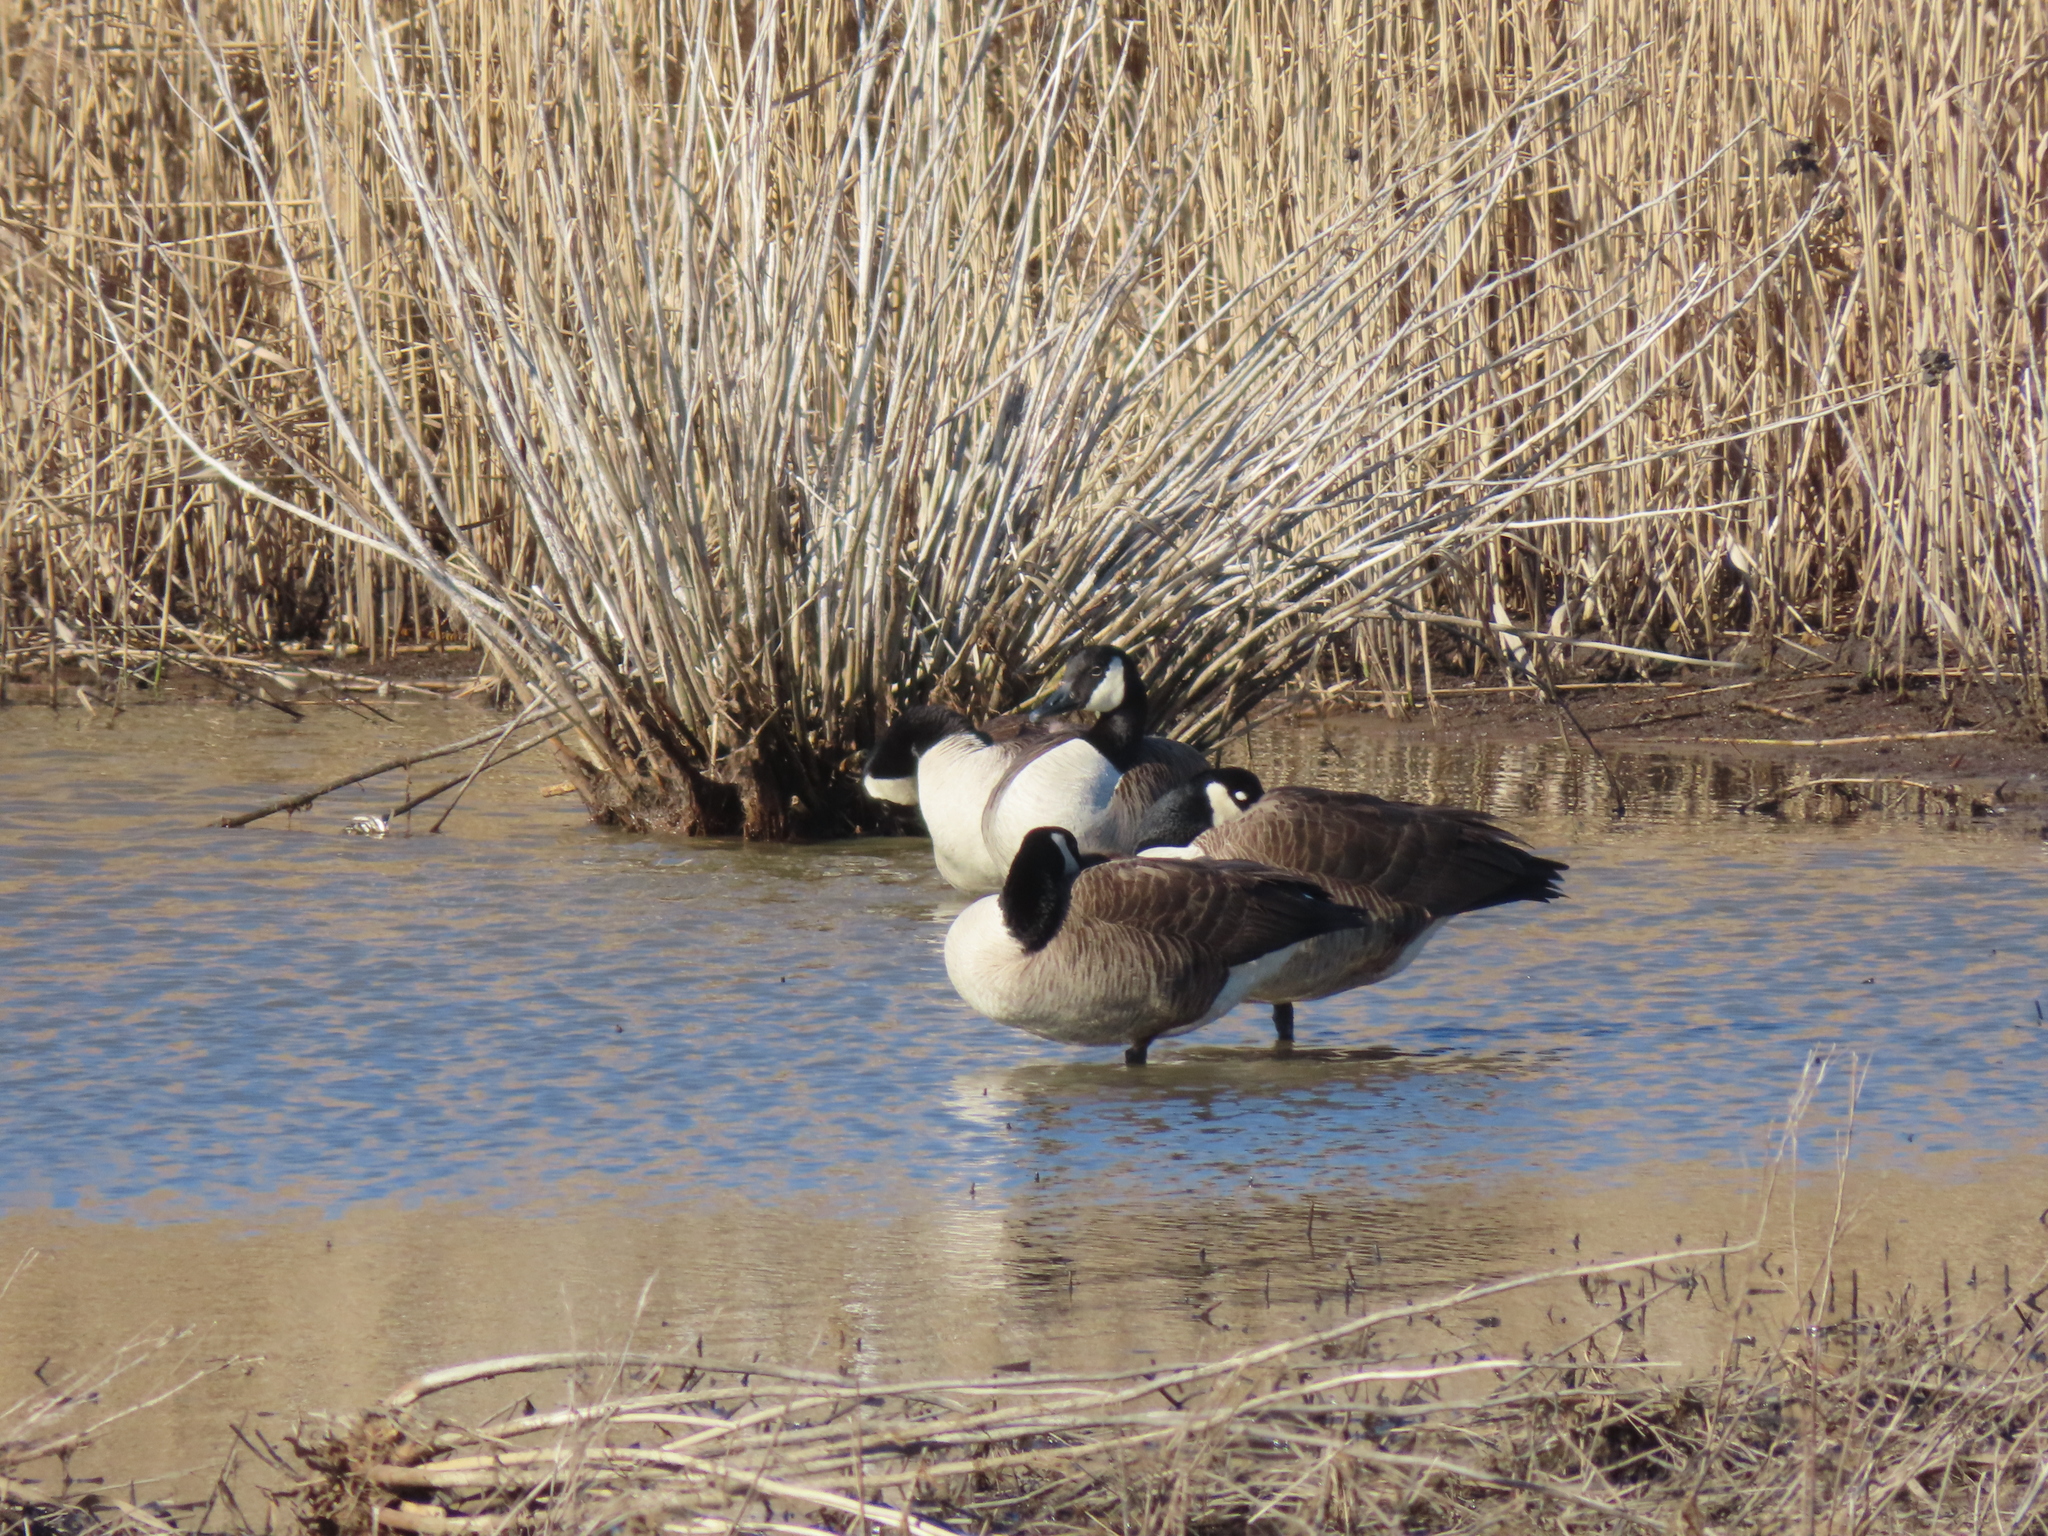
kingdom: Animalia
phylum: Chordata
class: Aves
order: Anseriformes
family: Anatidae
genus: Branta
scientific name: Branta canadensis
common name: Canada goose
